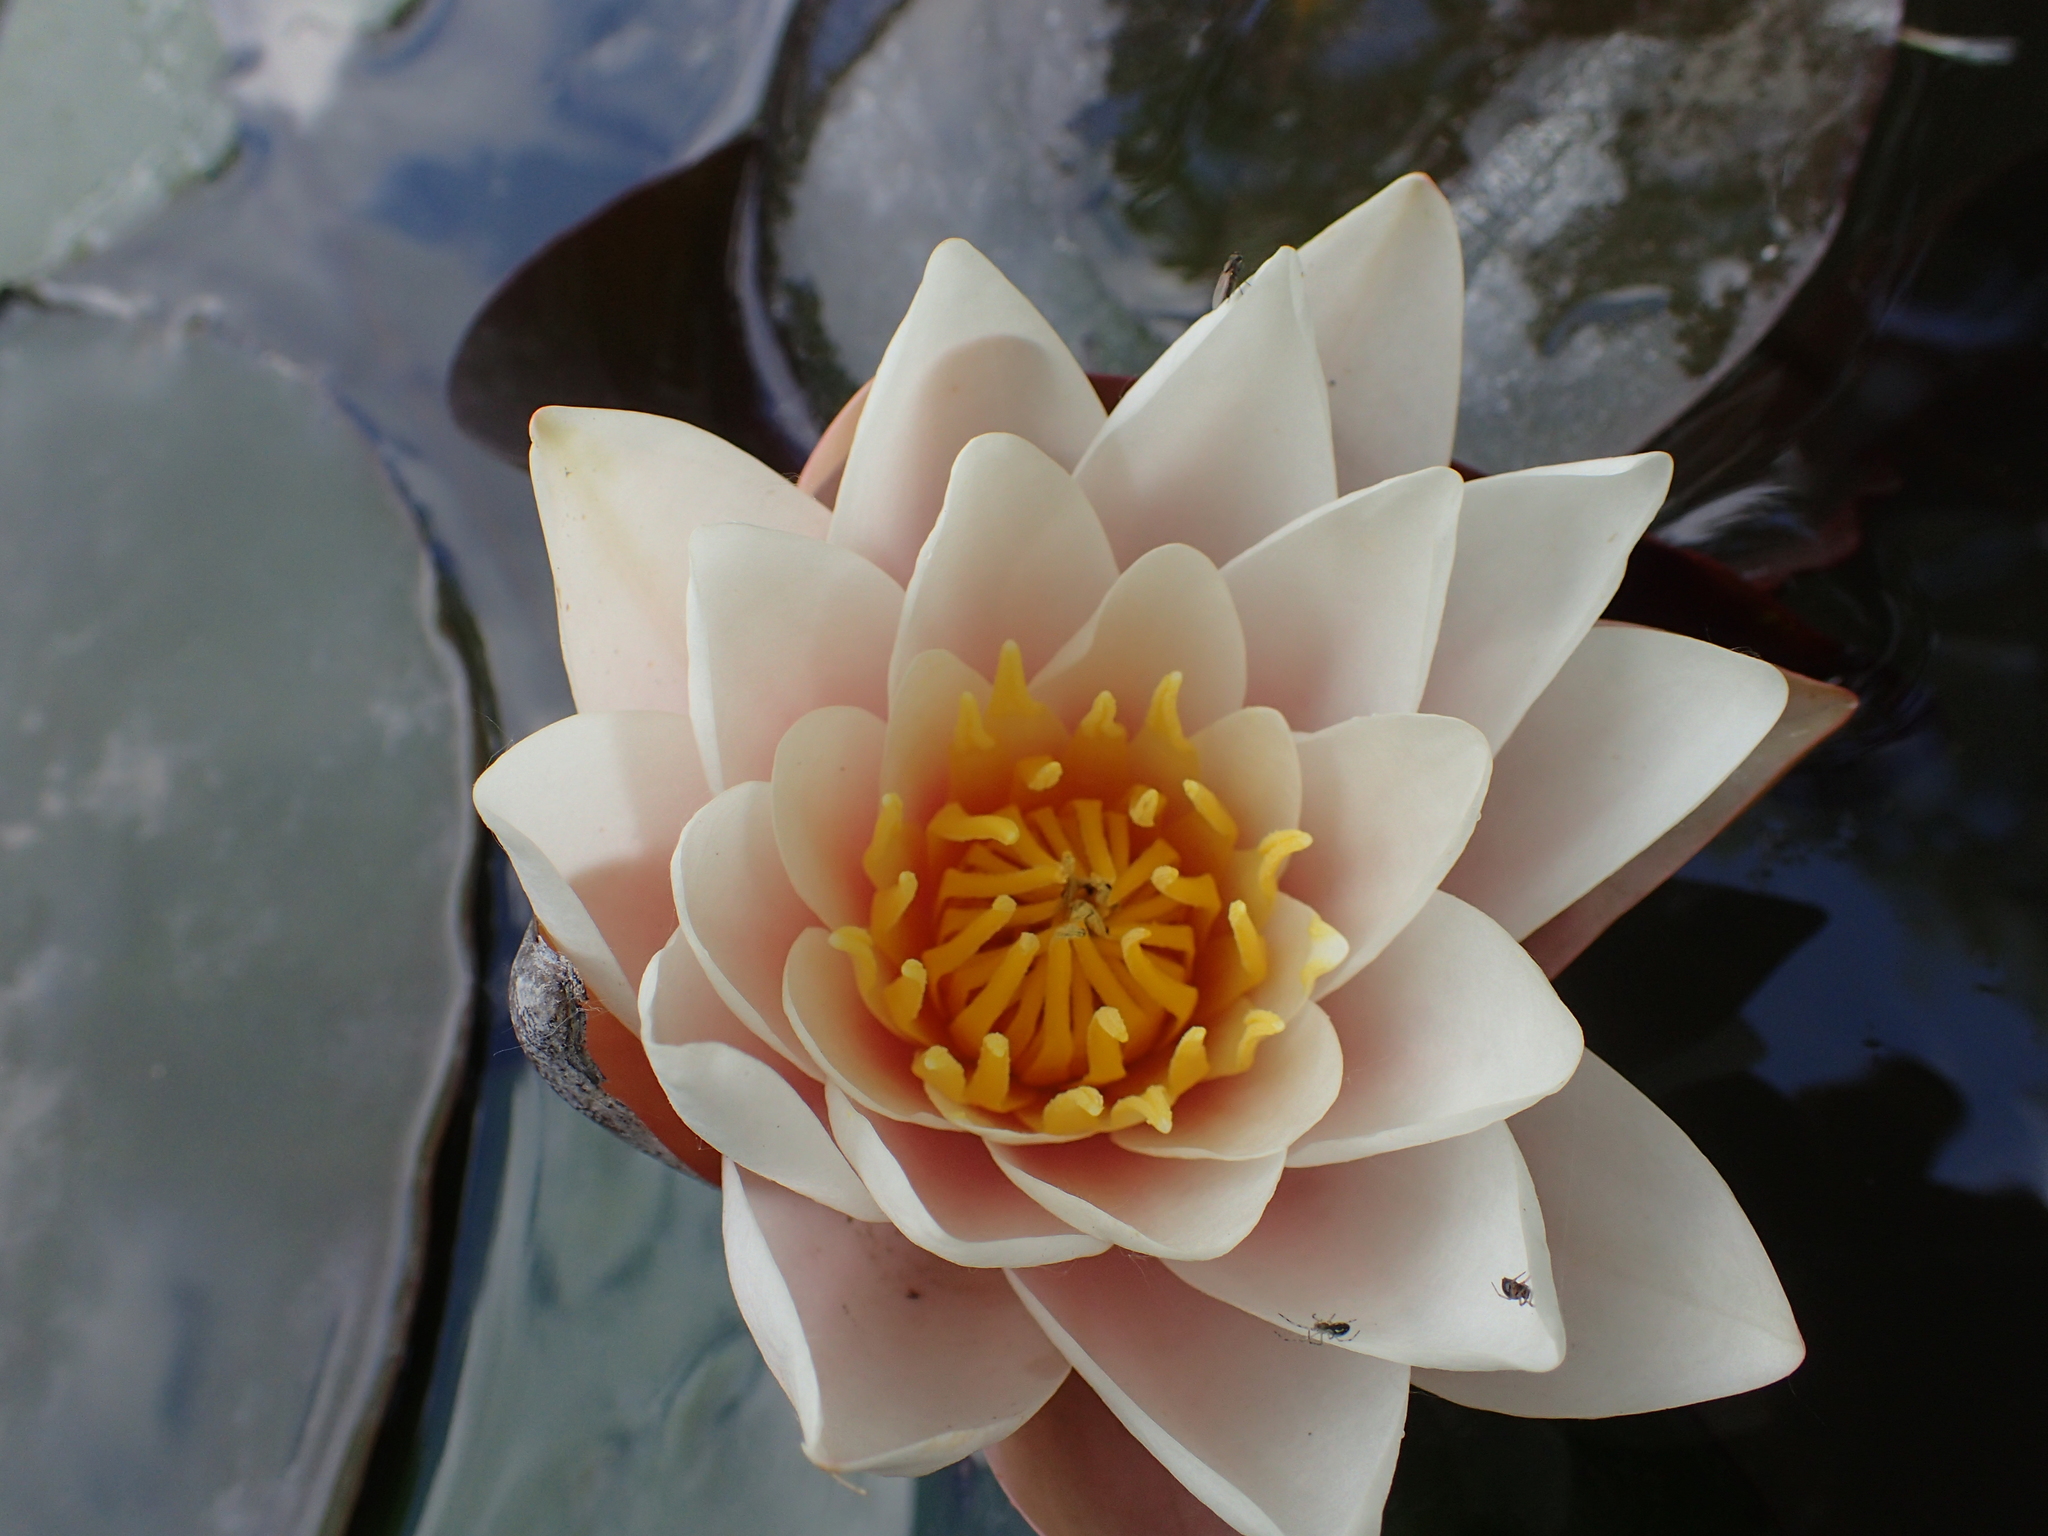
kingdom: Plantae
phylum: Tracheophyta
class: Magnoliopsida
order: Nymphaeales
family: Nymphaeaceae
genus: Nymphaea
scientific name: Nymphaea alba
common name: White water-lily
